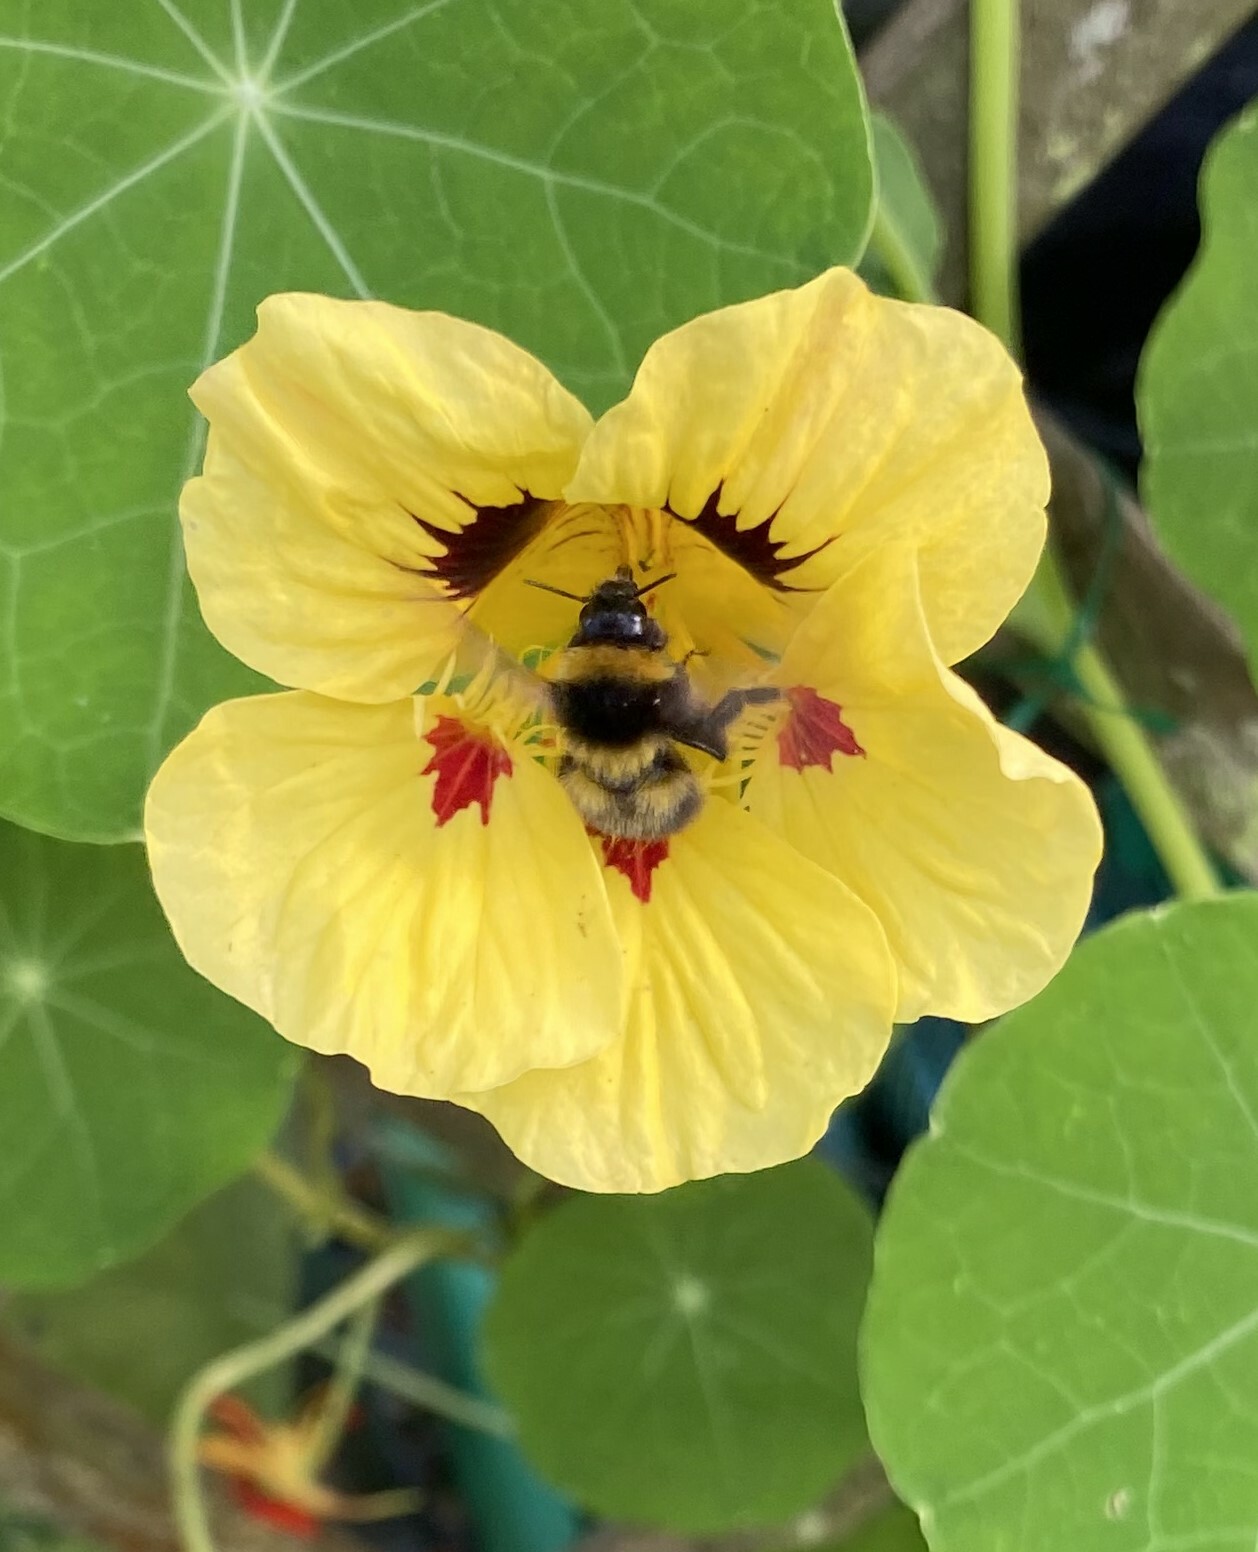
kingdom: Animalia
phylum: Arthropoda
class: Insecta
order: Hymenoptera
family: Apidae
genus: Bombus
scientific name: Bombus hortorum
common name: Garden bumblebee
